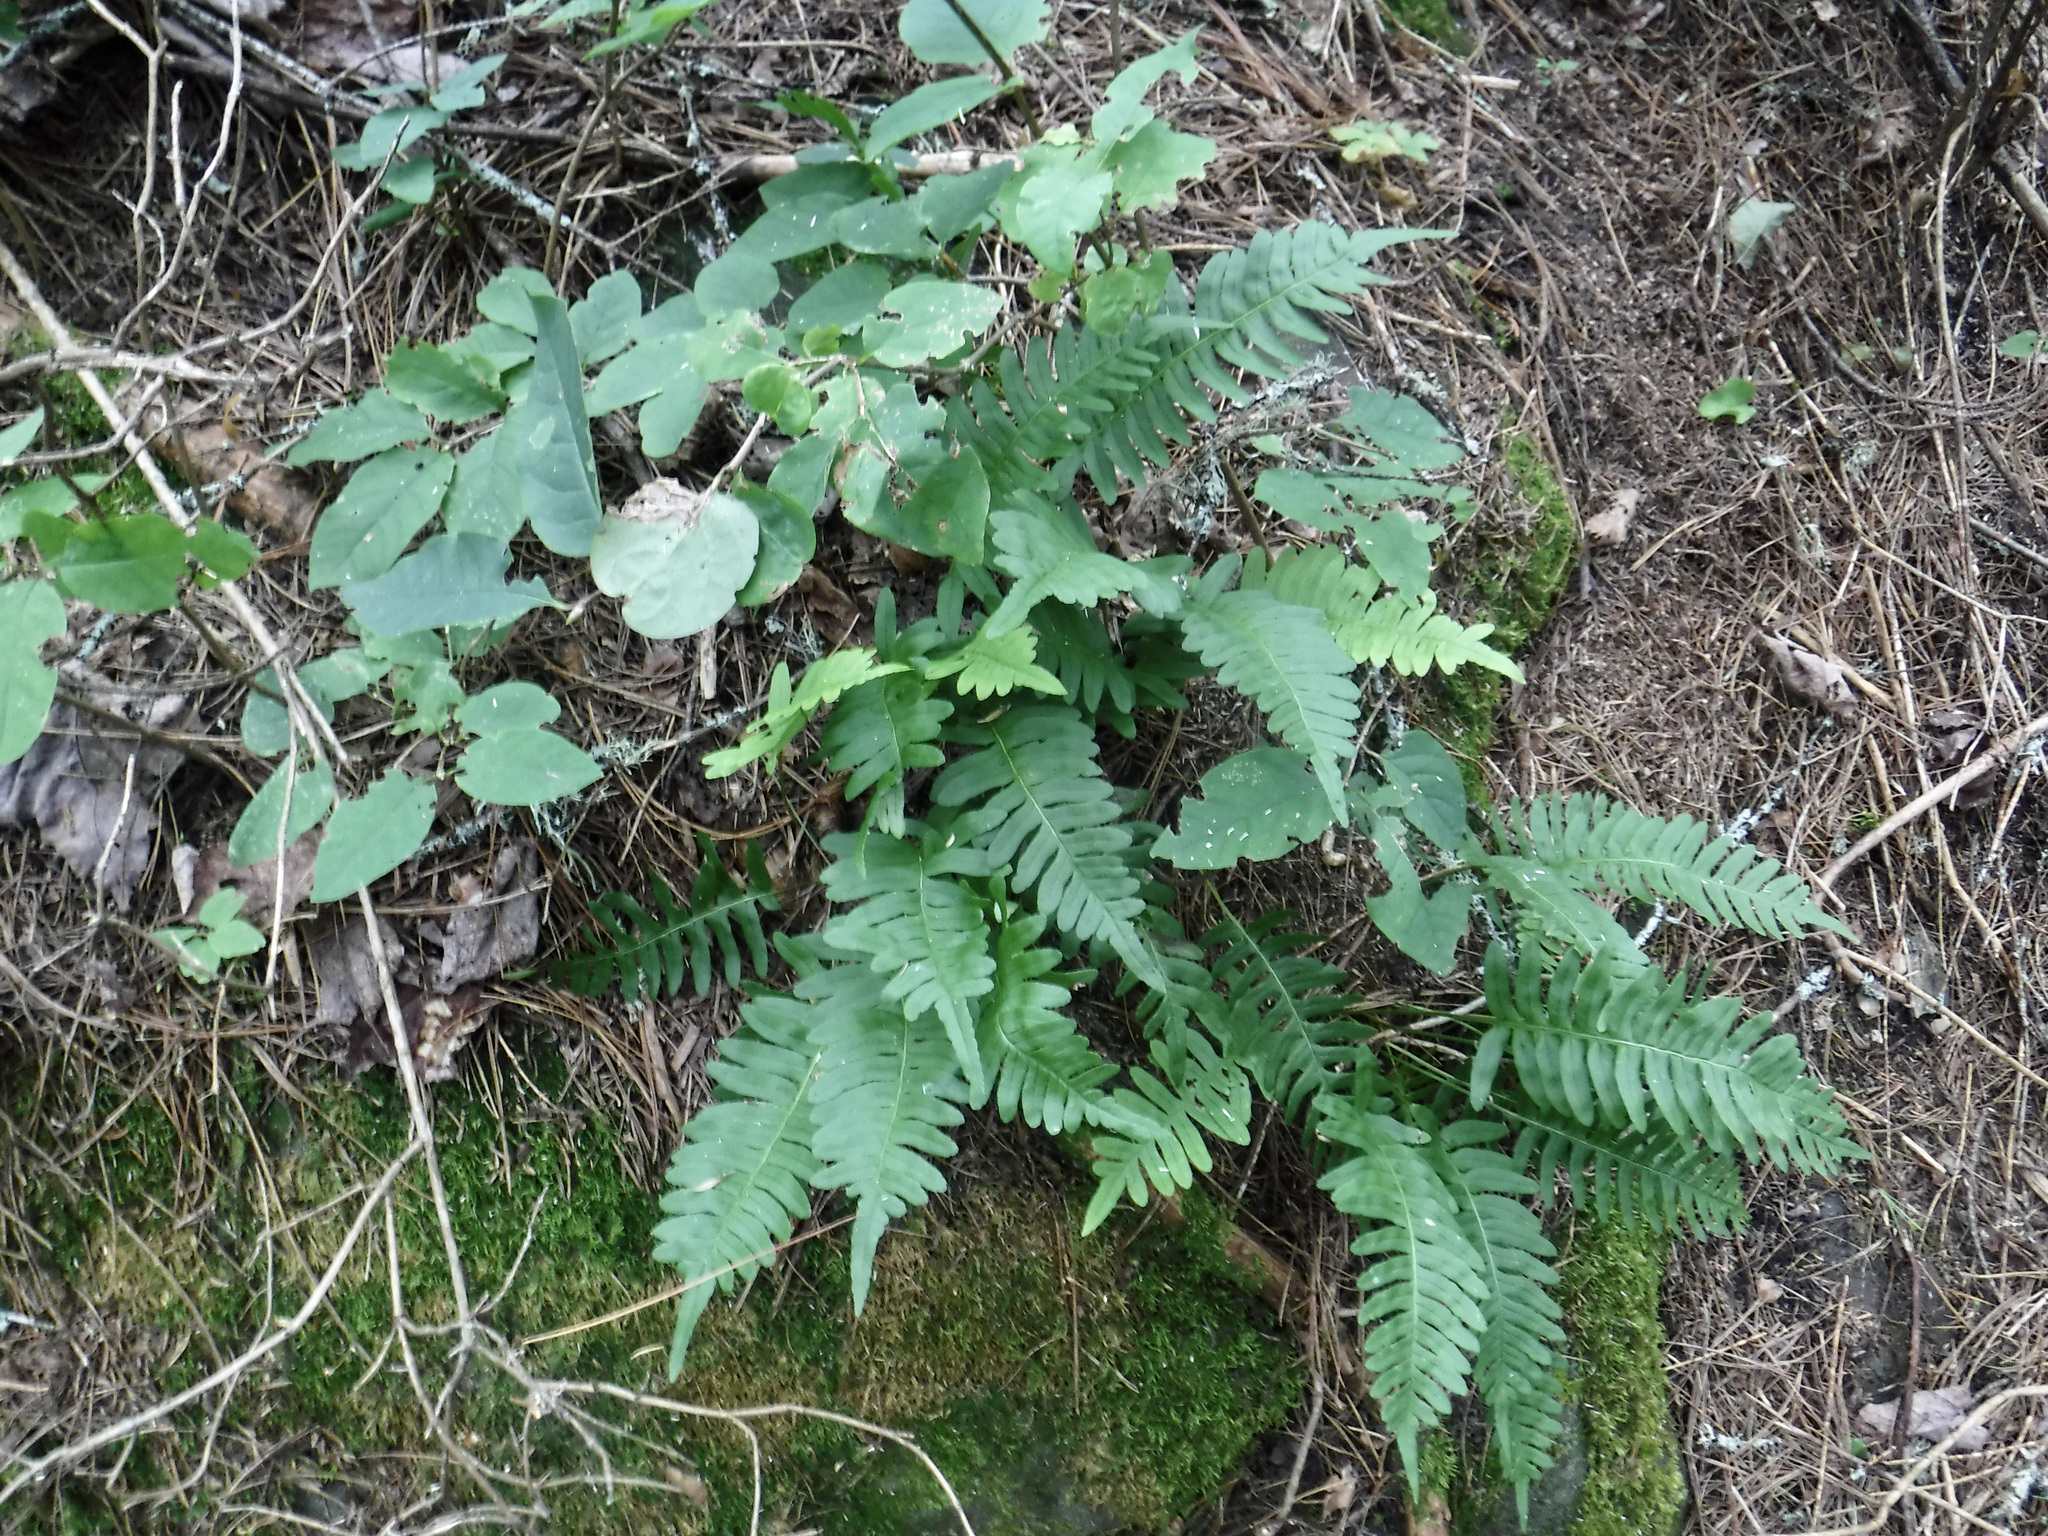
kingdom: Plantae
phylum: Tracheophyta
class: Polypodiopsida
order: Polypodiales
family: Polypodiaceae
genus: Polypodium
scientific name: Polypodium virginianum
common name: American wall fern
